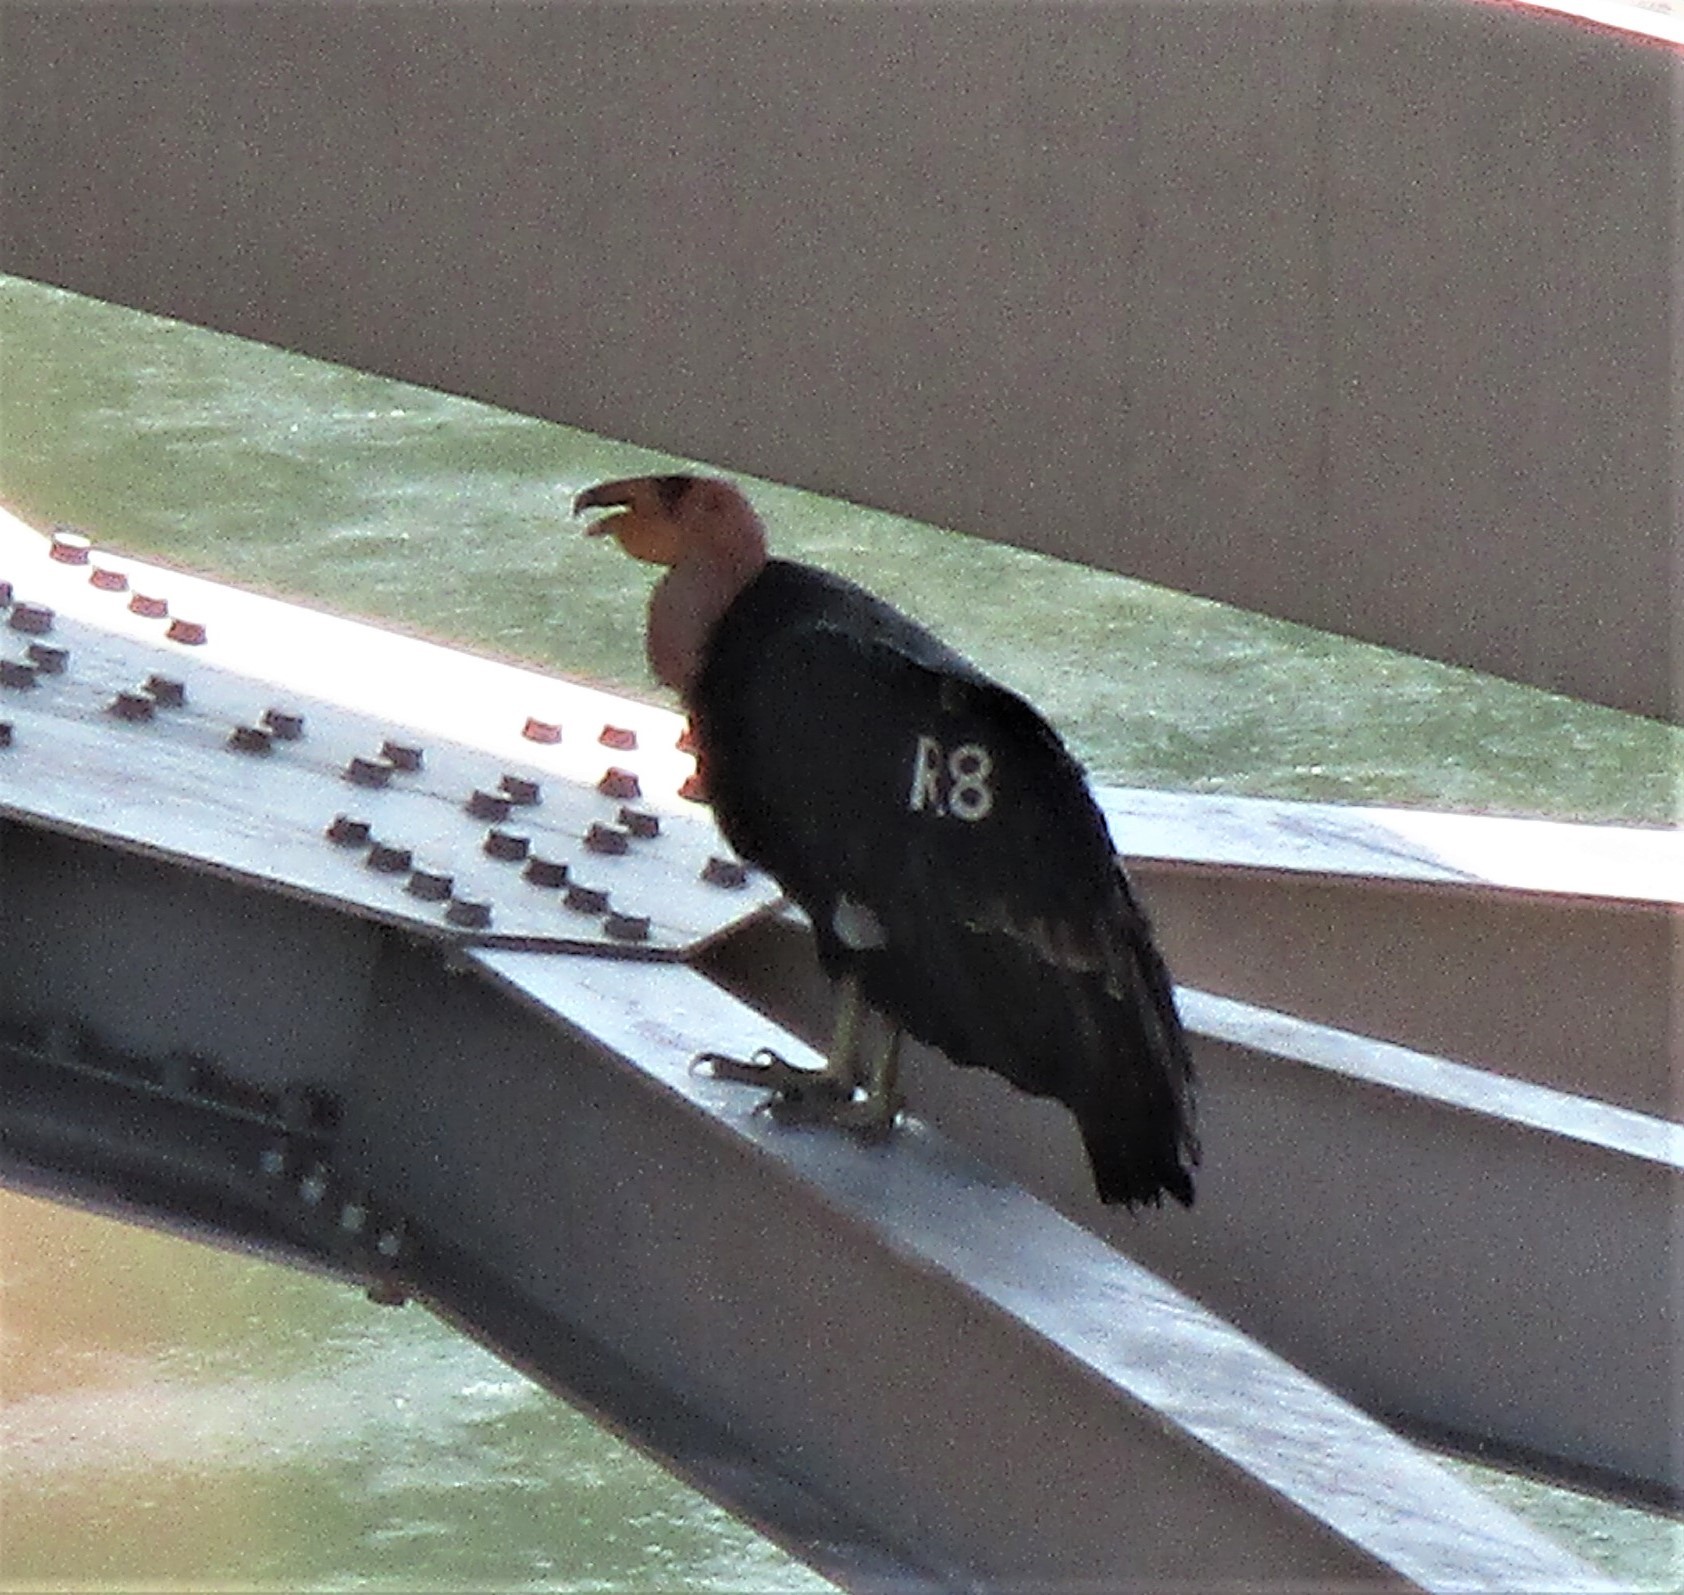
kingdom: Animalia
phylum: Chordata
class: Aves
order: Accipitriformes
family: Cathartidae
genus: Gymnogyps
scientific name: Gymnogyps californianus
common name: California condor
